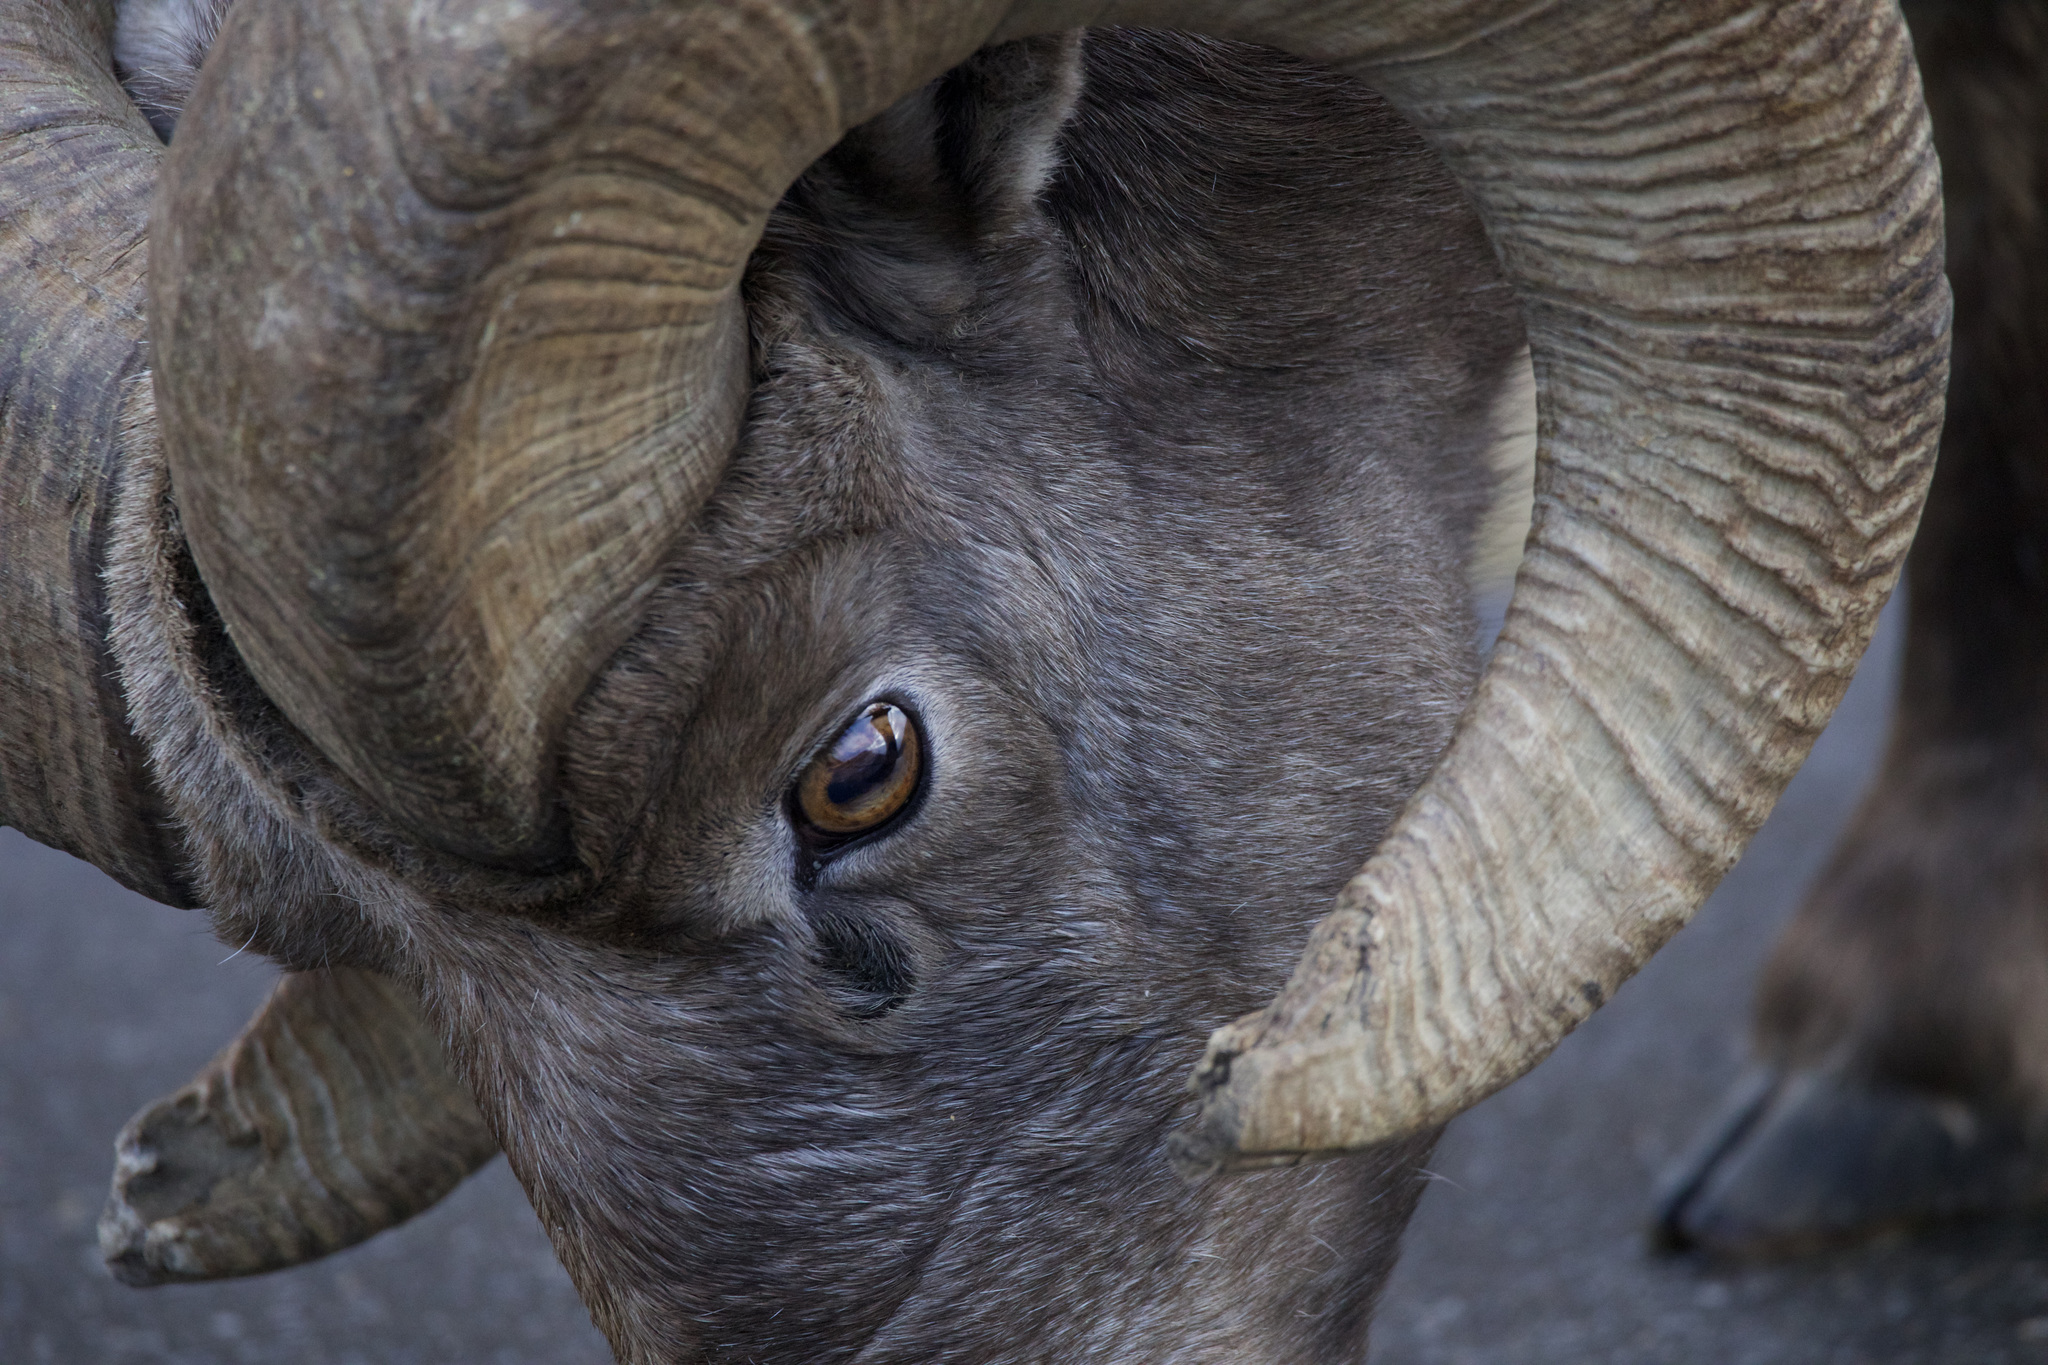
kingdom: Animalia
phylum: Chordata
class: Mammalia
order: Artiodactyla
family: Bovidae
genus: Ovis
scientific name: Ovis canadensis
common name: Bighorn sheep
